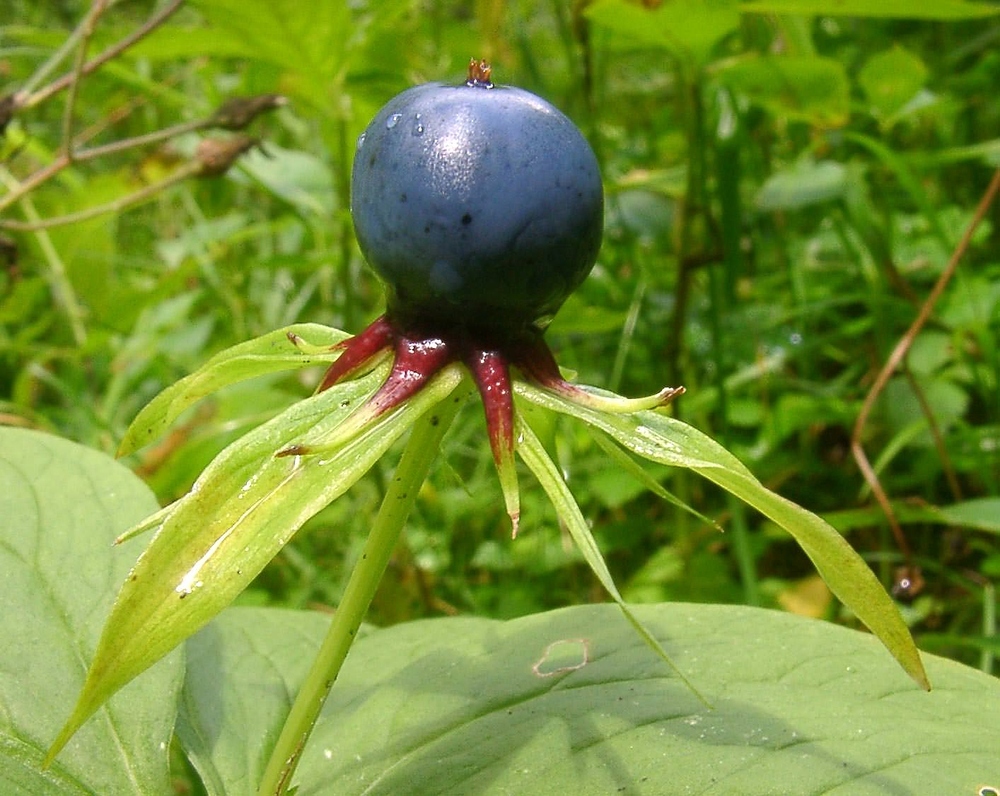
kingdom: Plantae
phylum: Tracheophyta
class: Liliopsida
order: Liliales
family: Melanthiaceae
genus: Paris
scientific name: Paris quadrifolia
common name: Herb-paris
